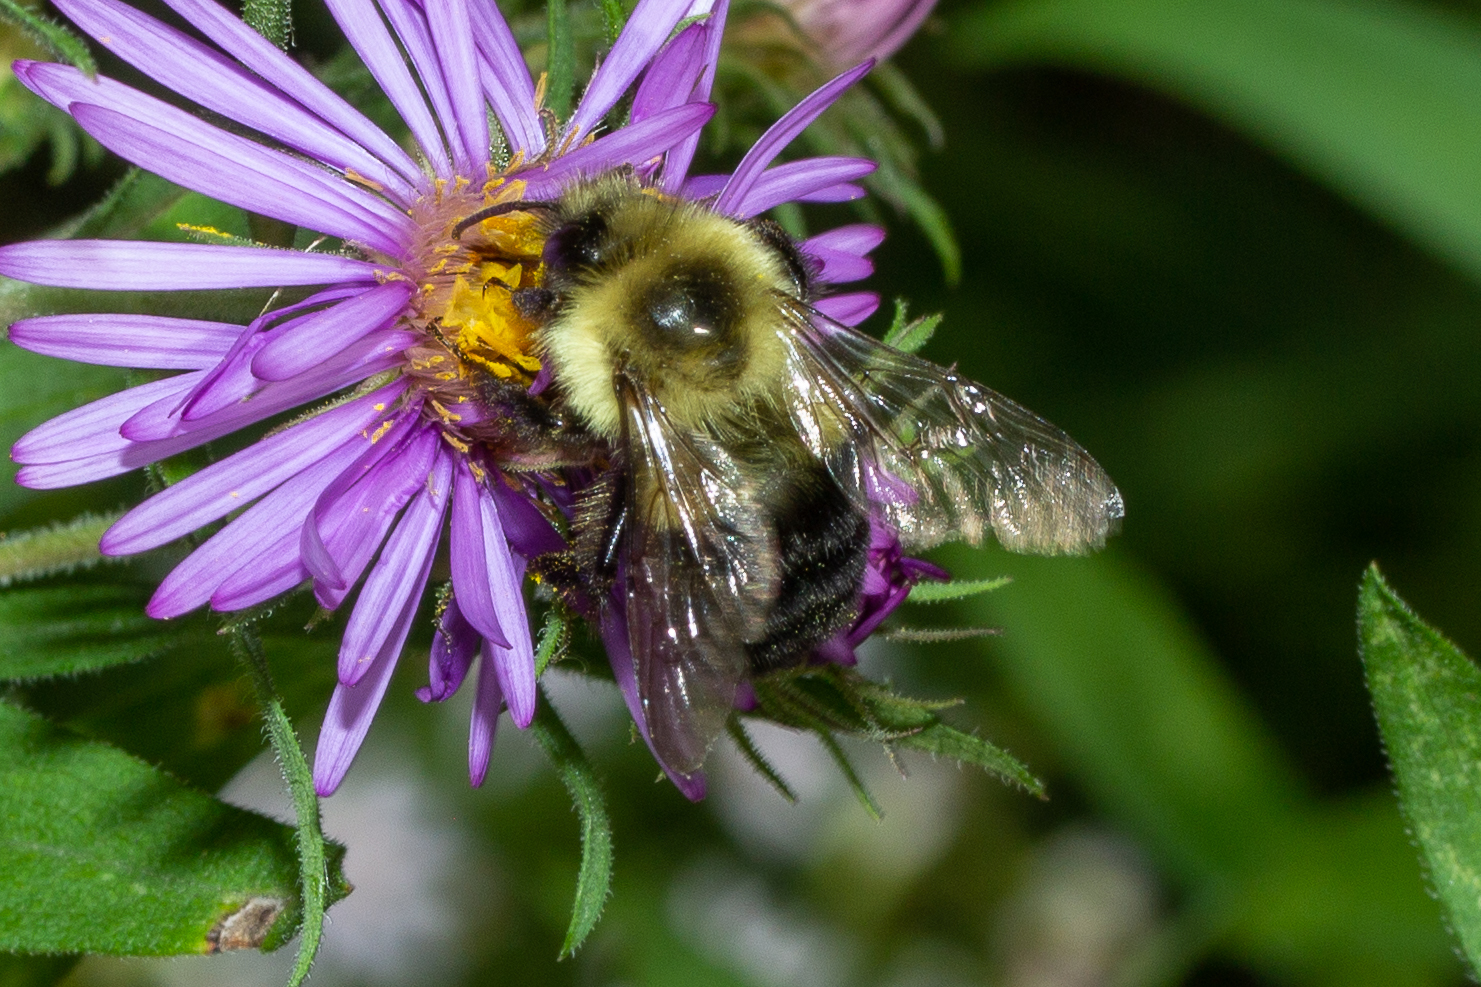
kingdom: Animalia
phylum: Arthropoda
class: Insecta
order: Hymenoptera
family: Apidae
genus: Bombus
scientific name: Bombus impatiens
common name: Common eastern bumble bee
